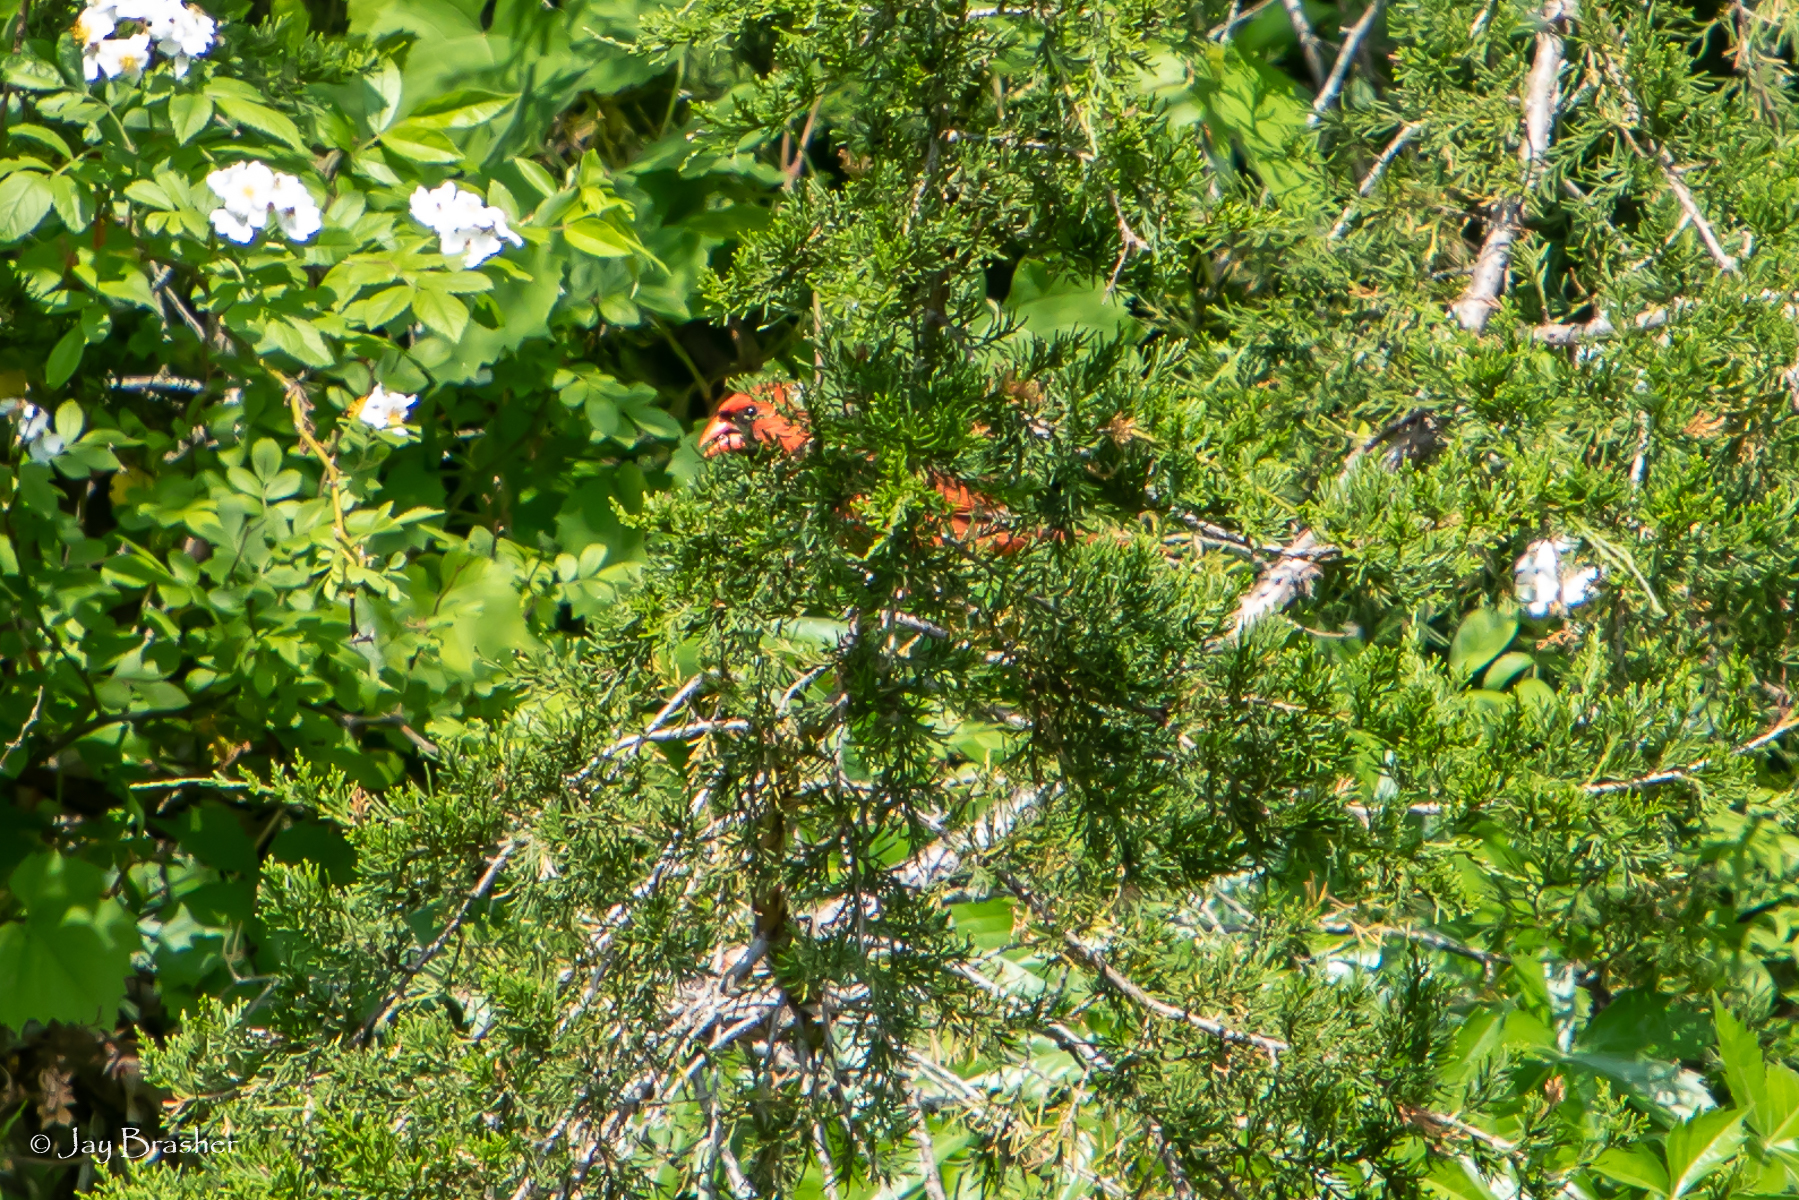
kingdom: Animalia
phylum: Chordata
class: Aves
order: Passeriformes
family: Cardinalidae
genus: Cardinalis
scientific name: Cardinalis cardinalis
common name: Northern cardinal
